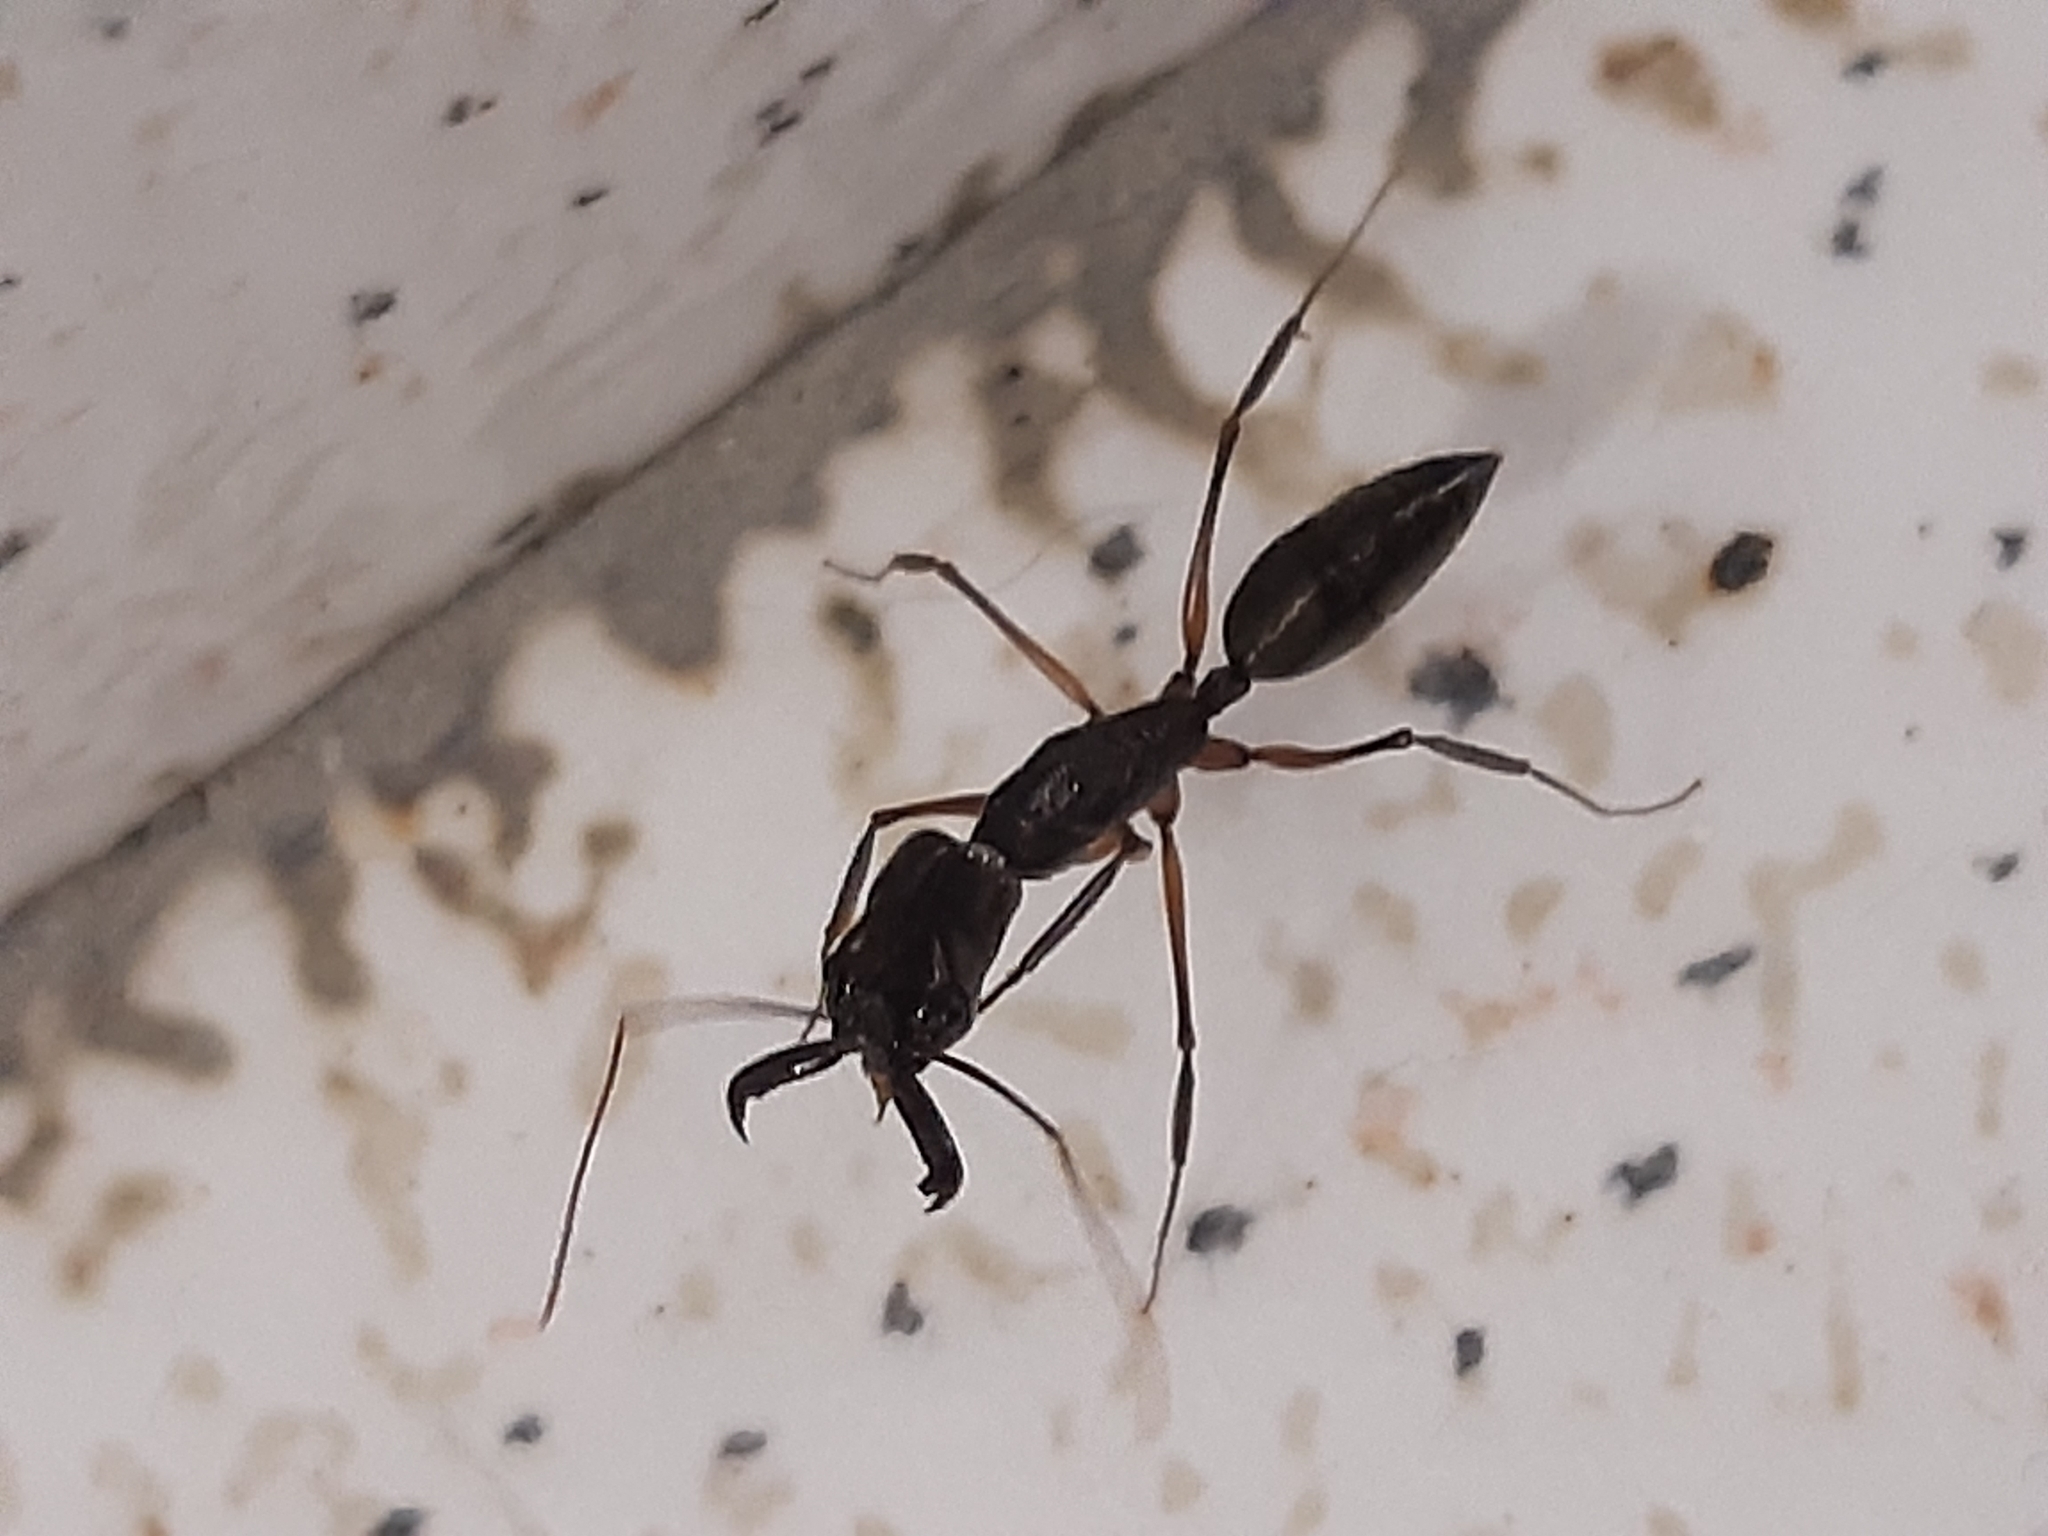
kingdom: Animalia
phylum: Arthropoda
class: Insecta
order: Hymenoptera
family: Formicidae
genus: Odontomachus
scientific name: Odontomachus chelifer
